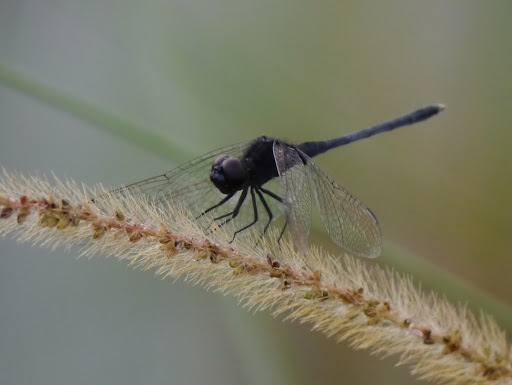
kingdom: Animalia
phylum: Arthropoda
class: Insecta
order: Odonata
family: Libellulidae
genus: Diplacodes
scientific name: Diplacodes lefebvrii
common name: Black percher
